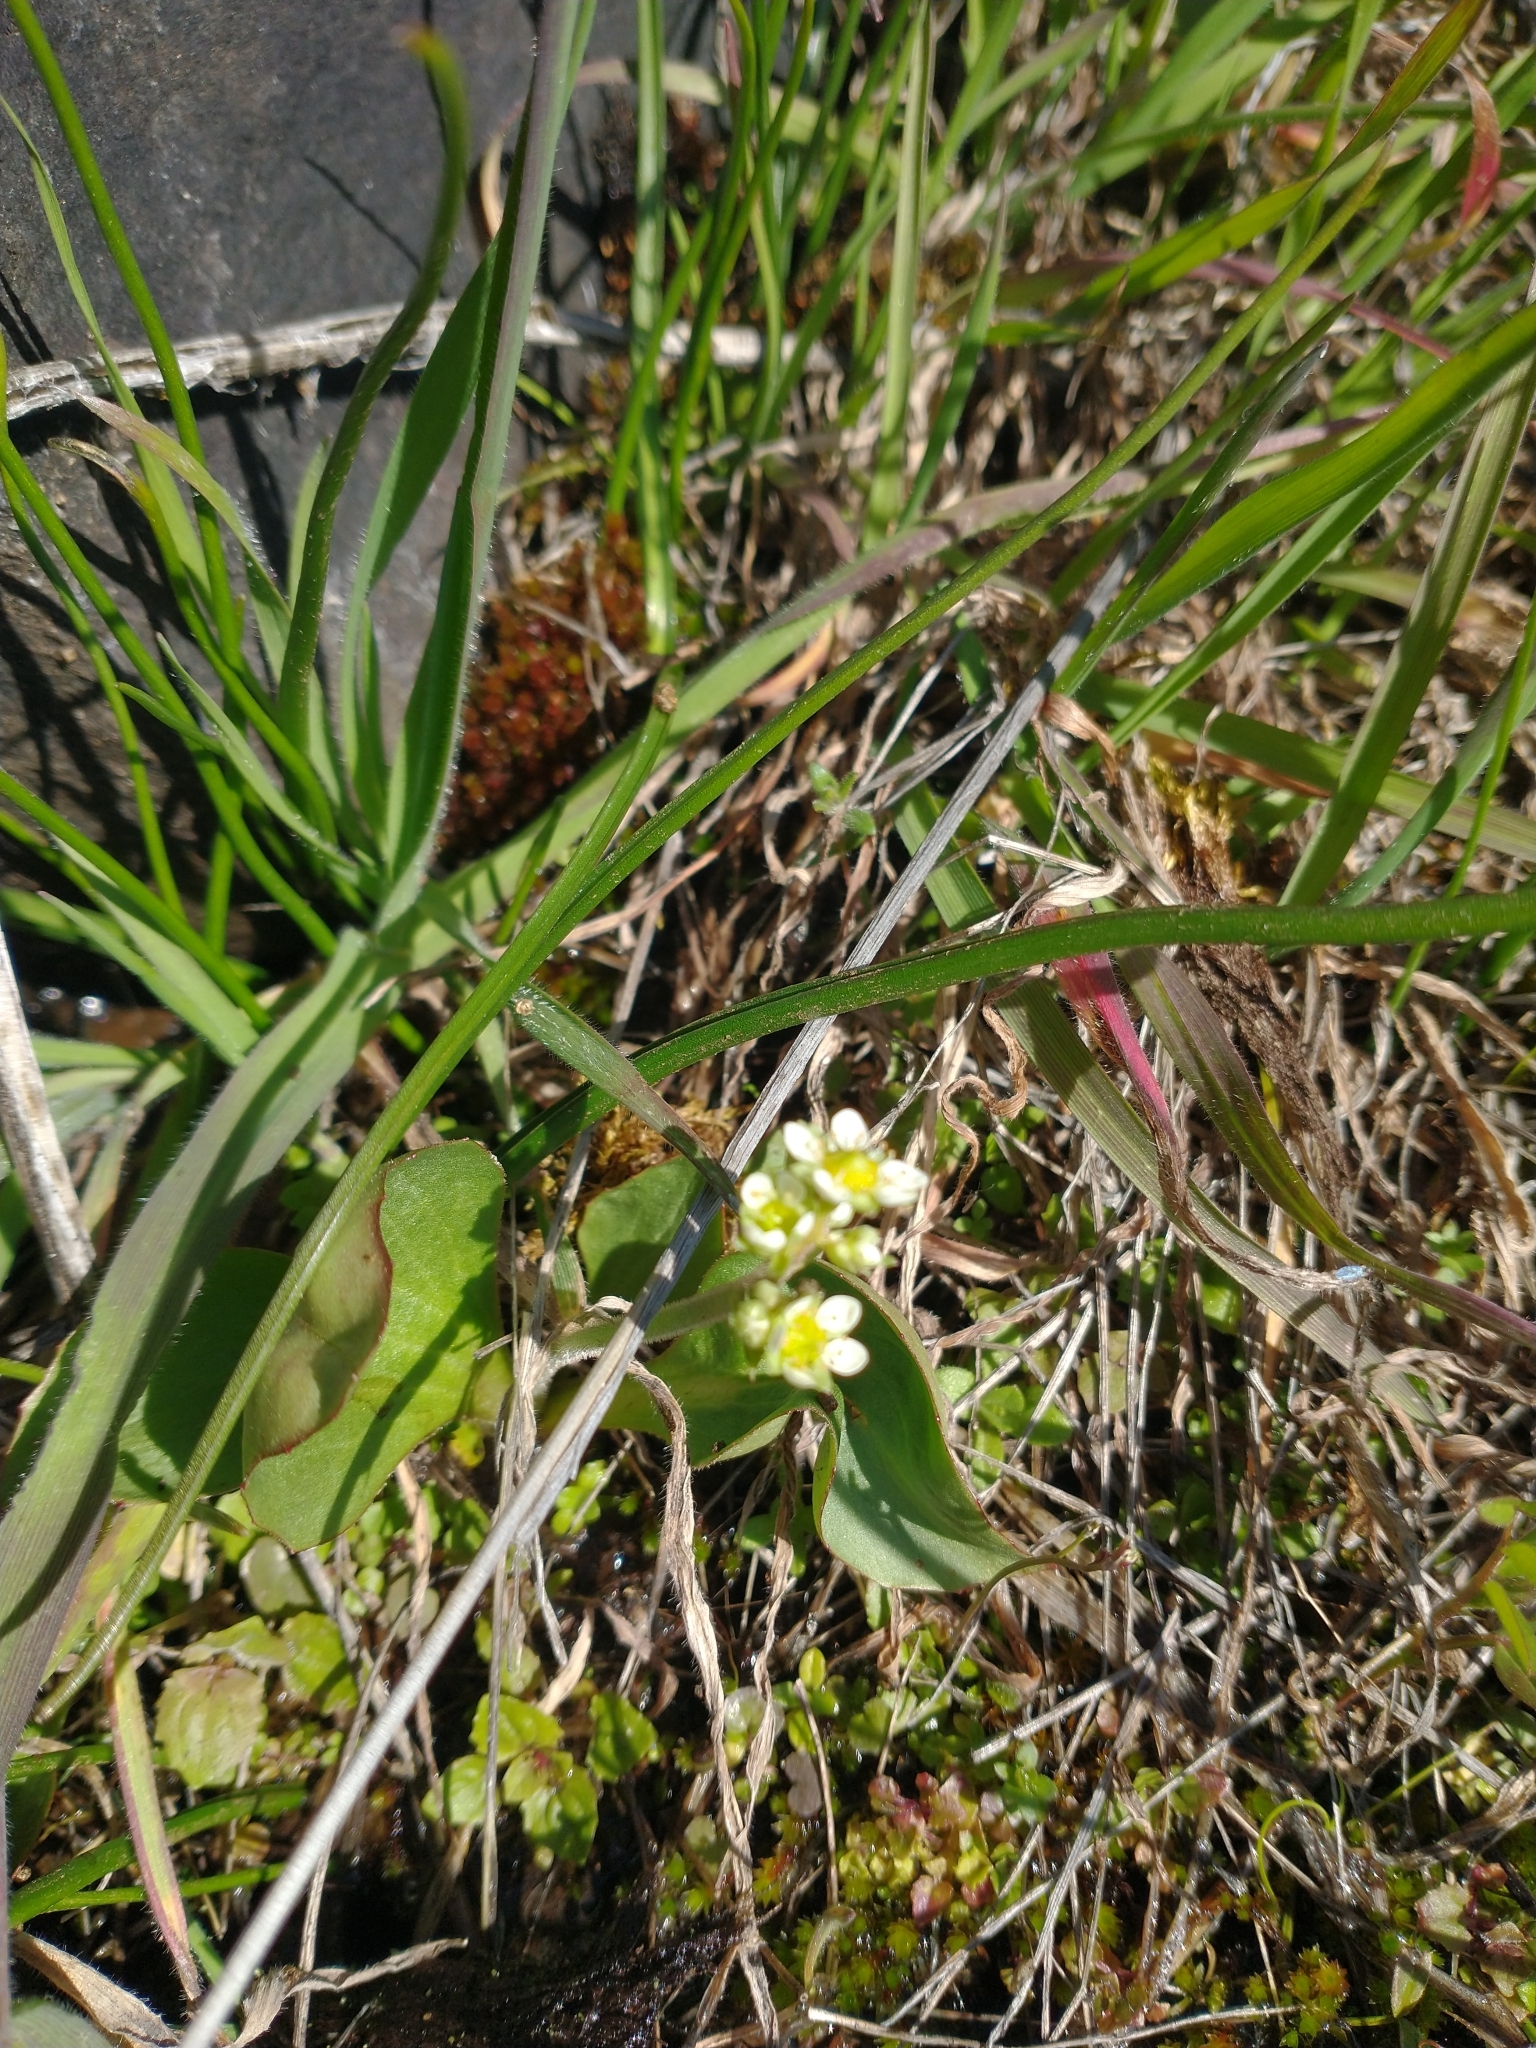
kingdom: Plantae
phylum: Tracheophyta
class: Magnoliopsida
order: Saxifragales
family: Saxifragaceae
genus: Micranthes
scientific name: Micranthes fragosa
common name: Peak saxifrage
